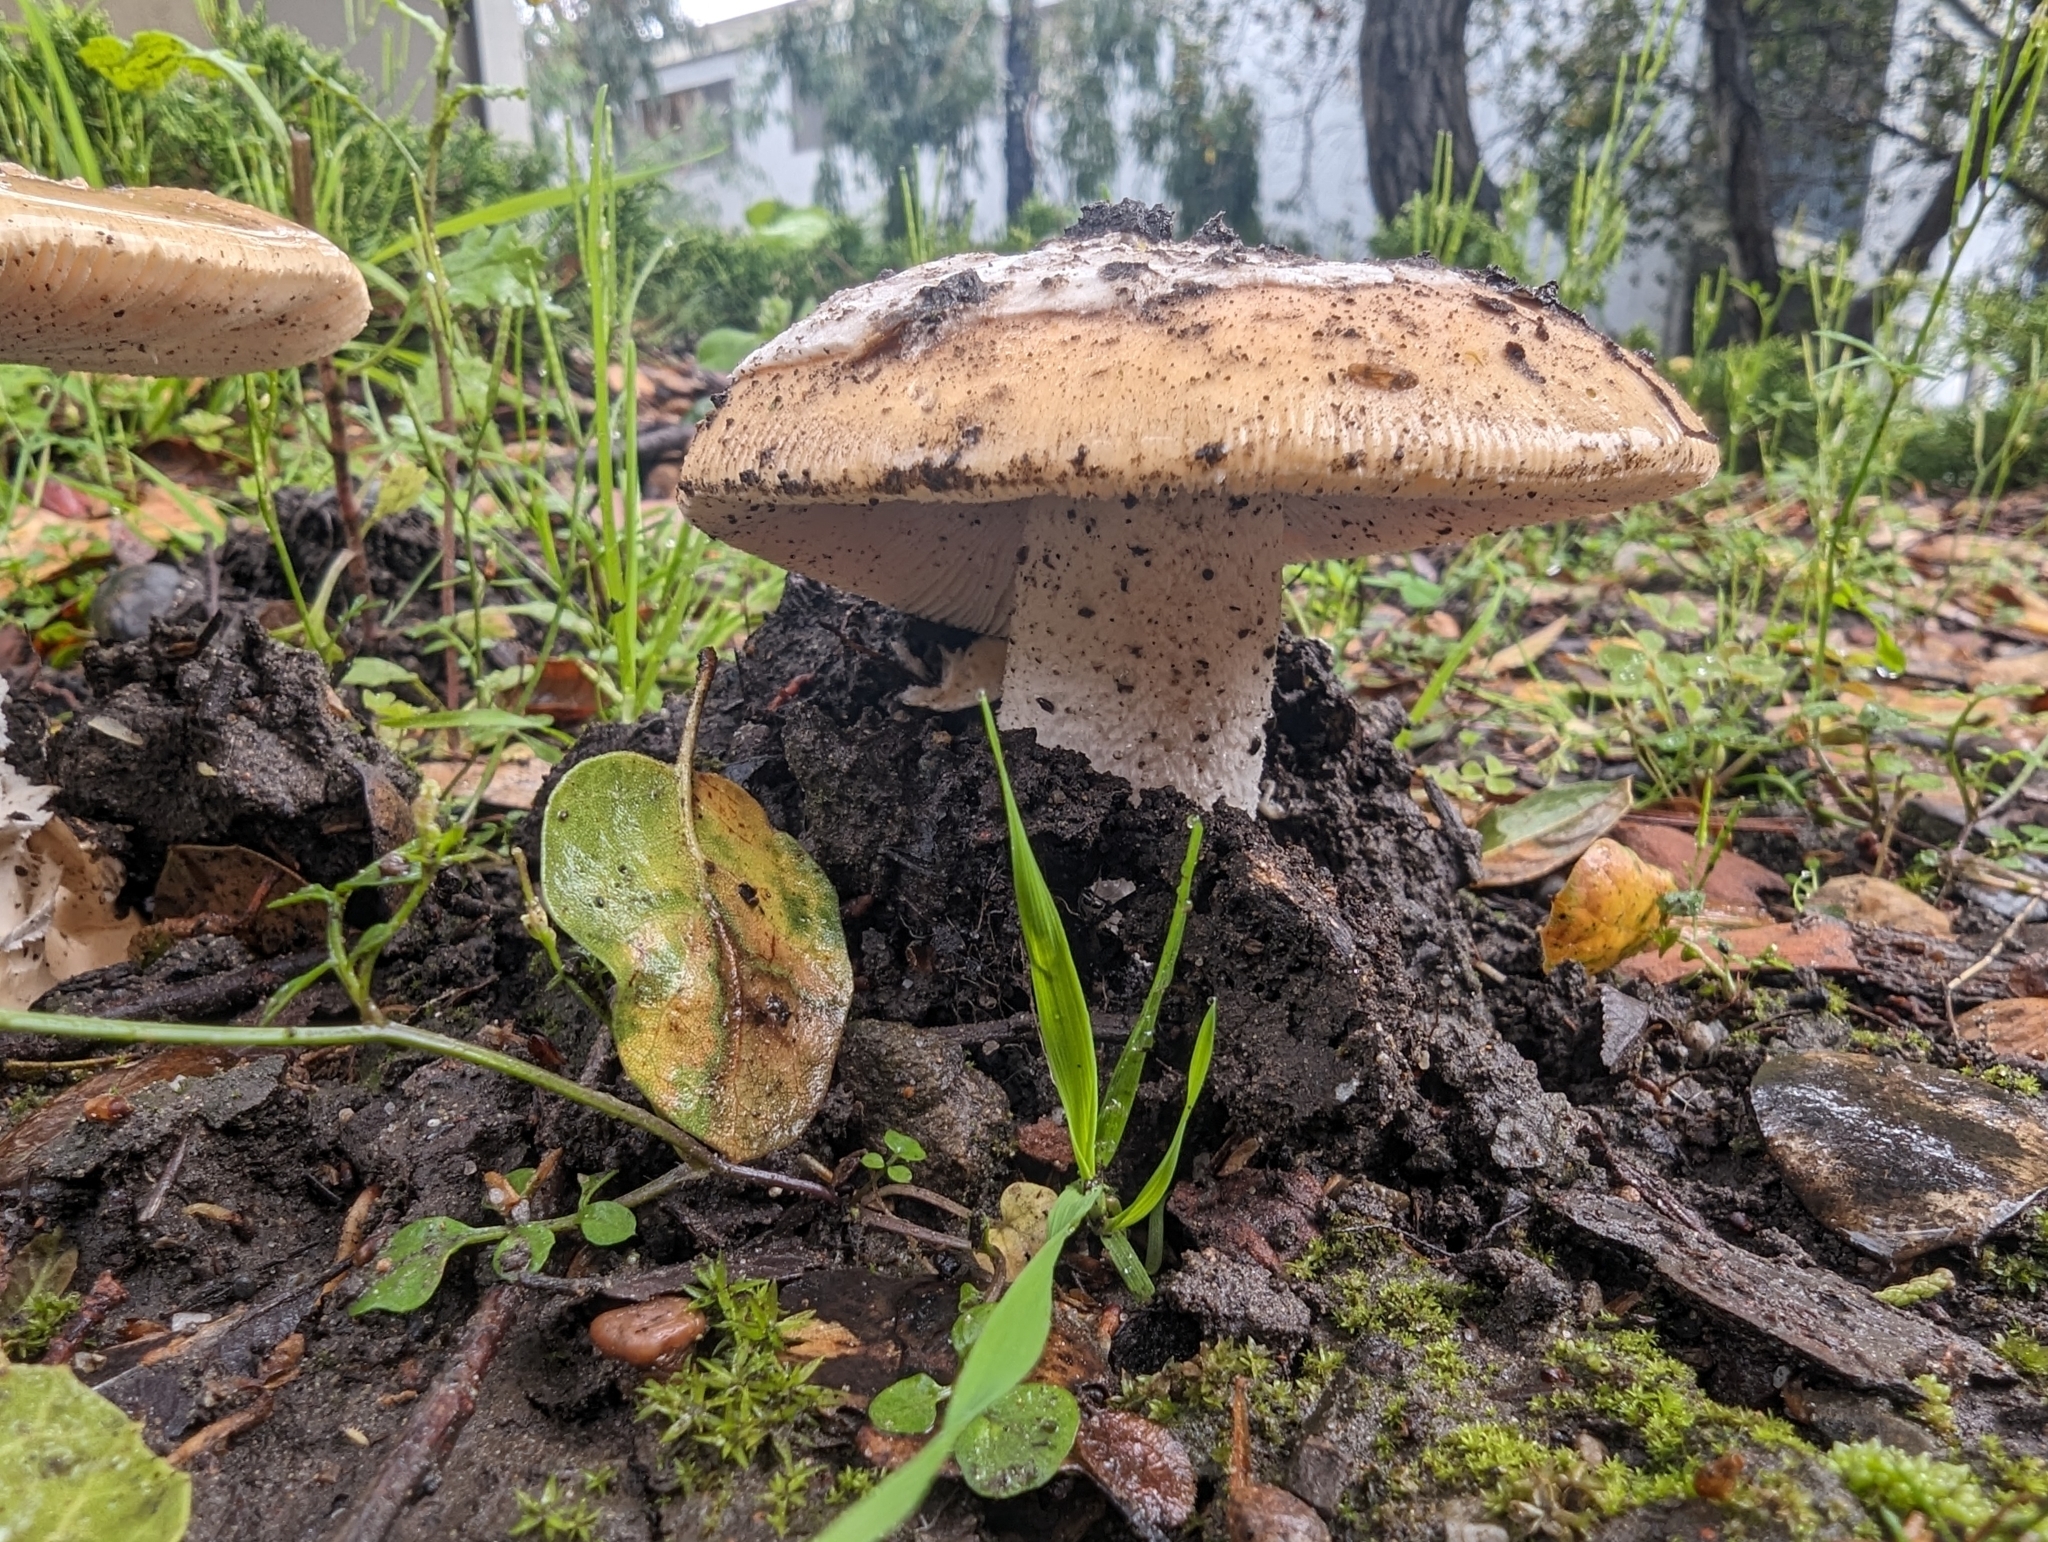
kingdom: Fungi
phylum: Basidiomycota
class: Agaricomycetes
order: Agaricales
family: Amanitaceae
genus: Amanita
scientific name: Amanita velosa
